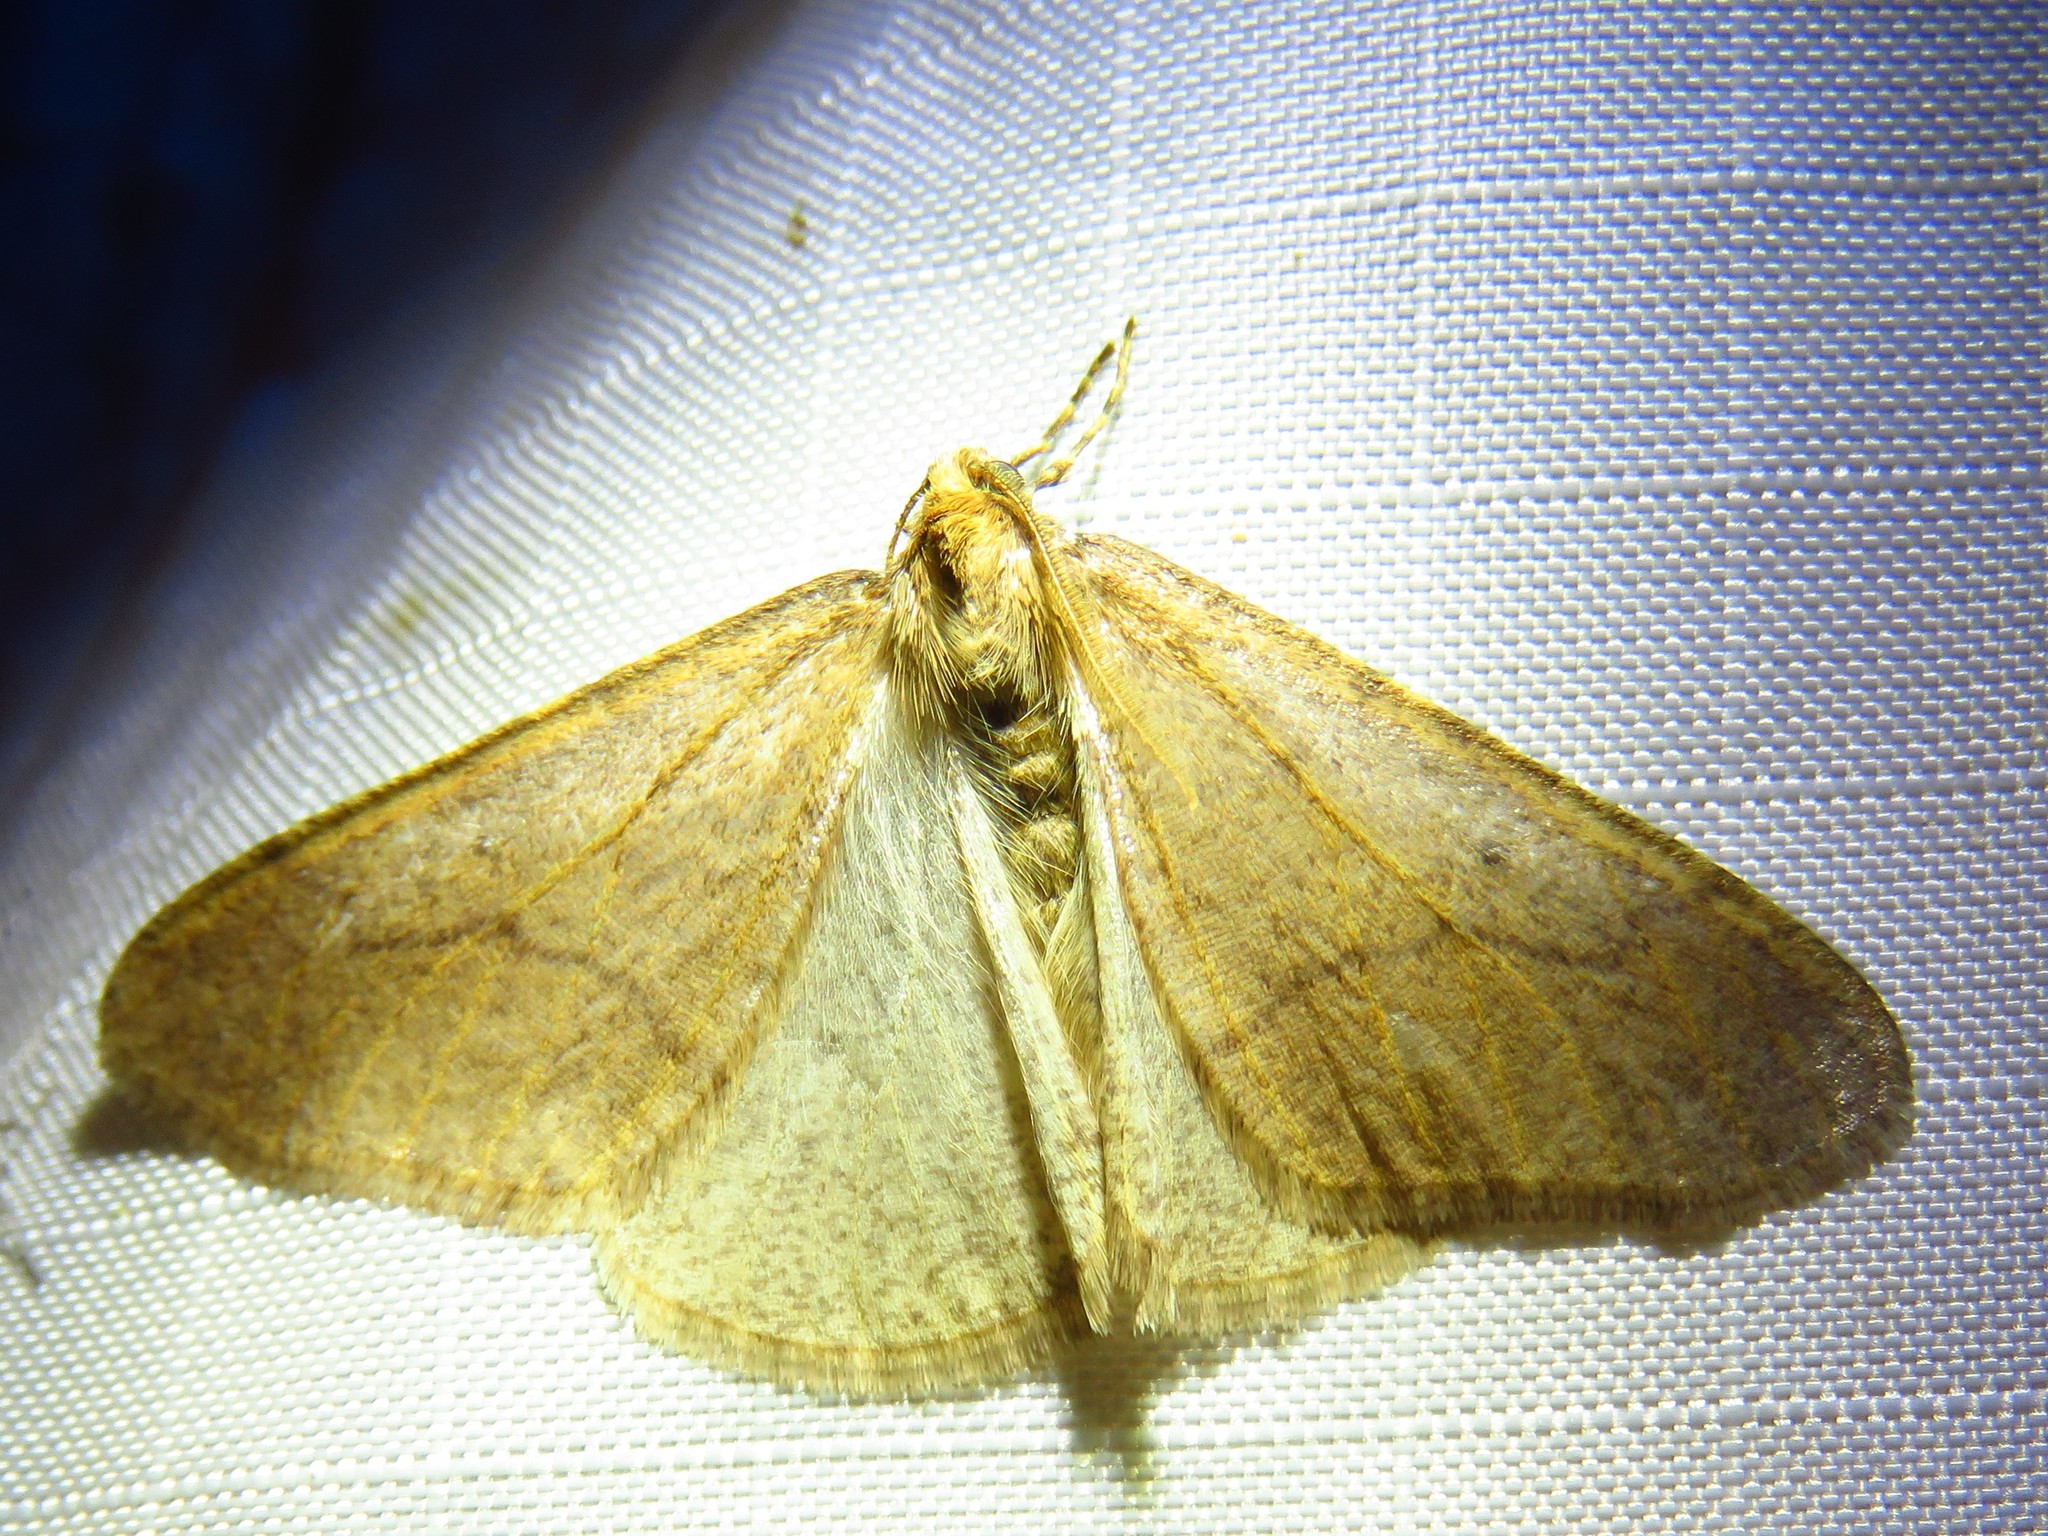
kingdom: Animalia
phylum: Arthropoda
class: Insecta
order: Lepidoptera
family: Geometridae
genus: Erannis
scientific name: Erannis tiliaria
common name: Linden looper
